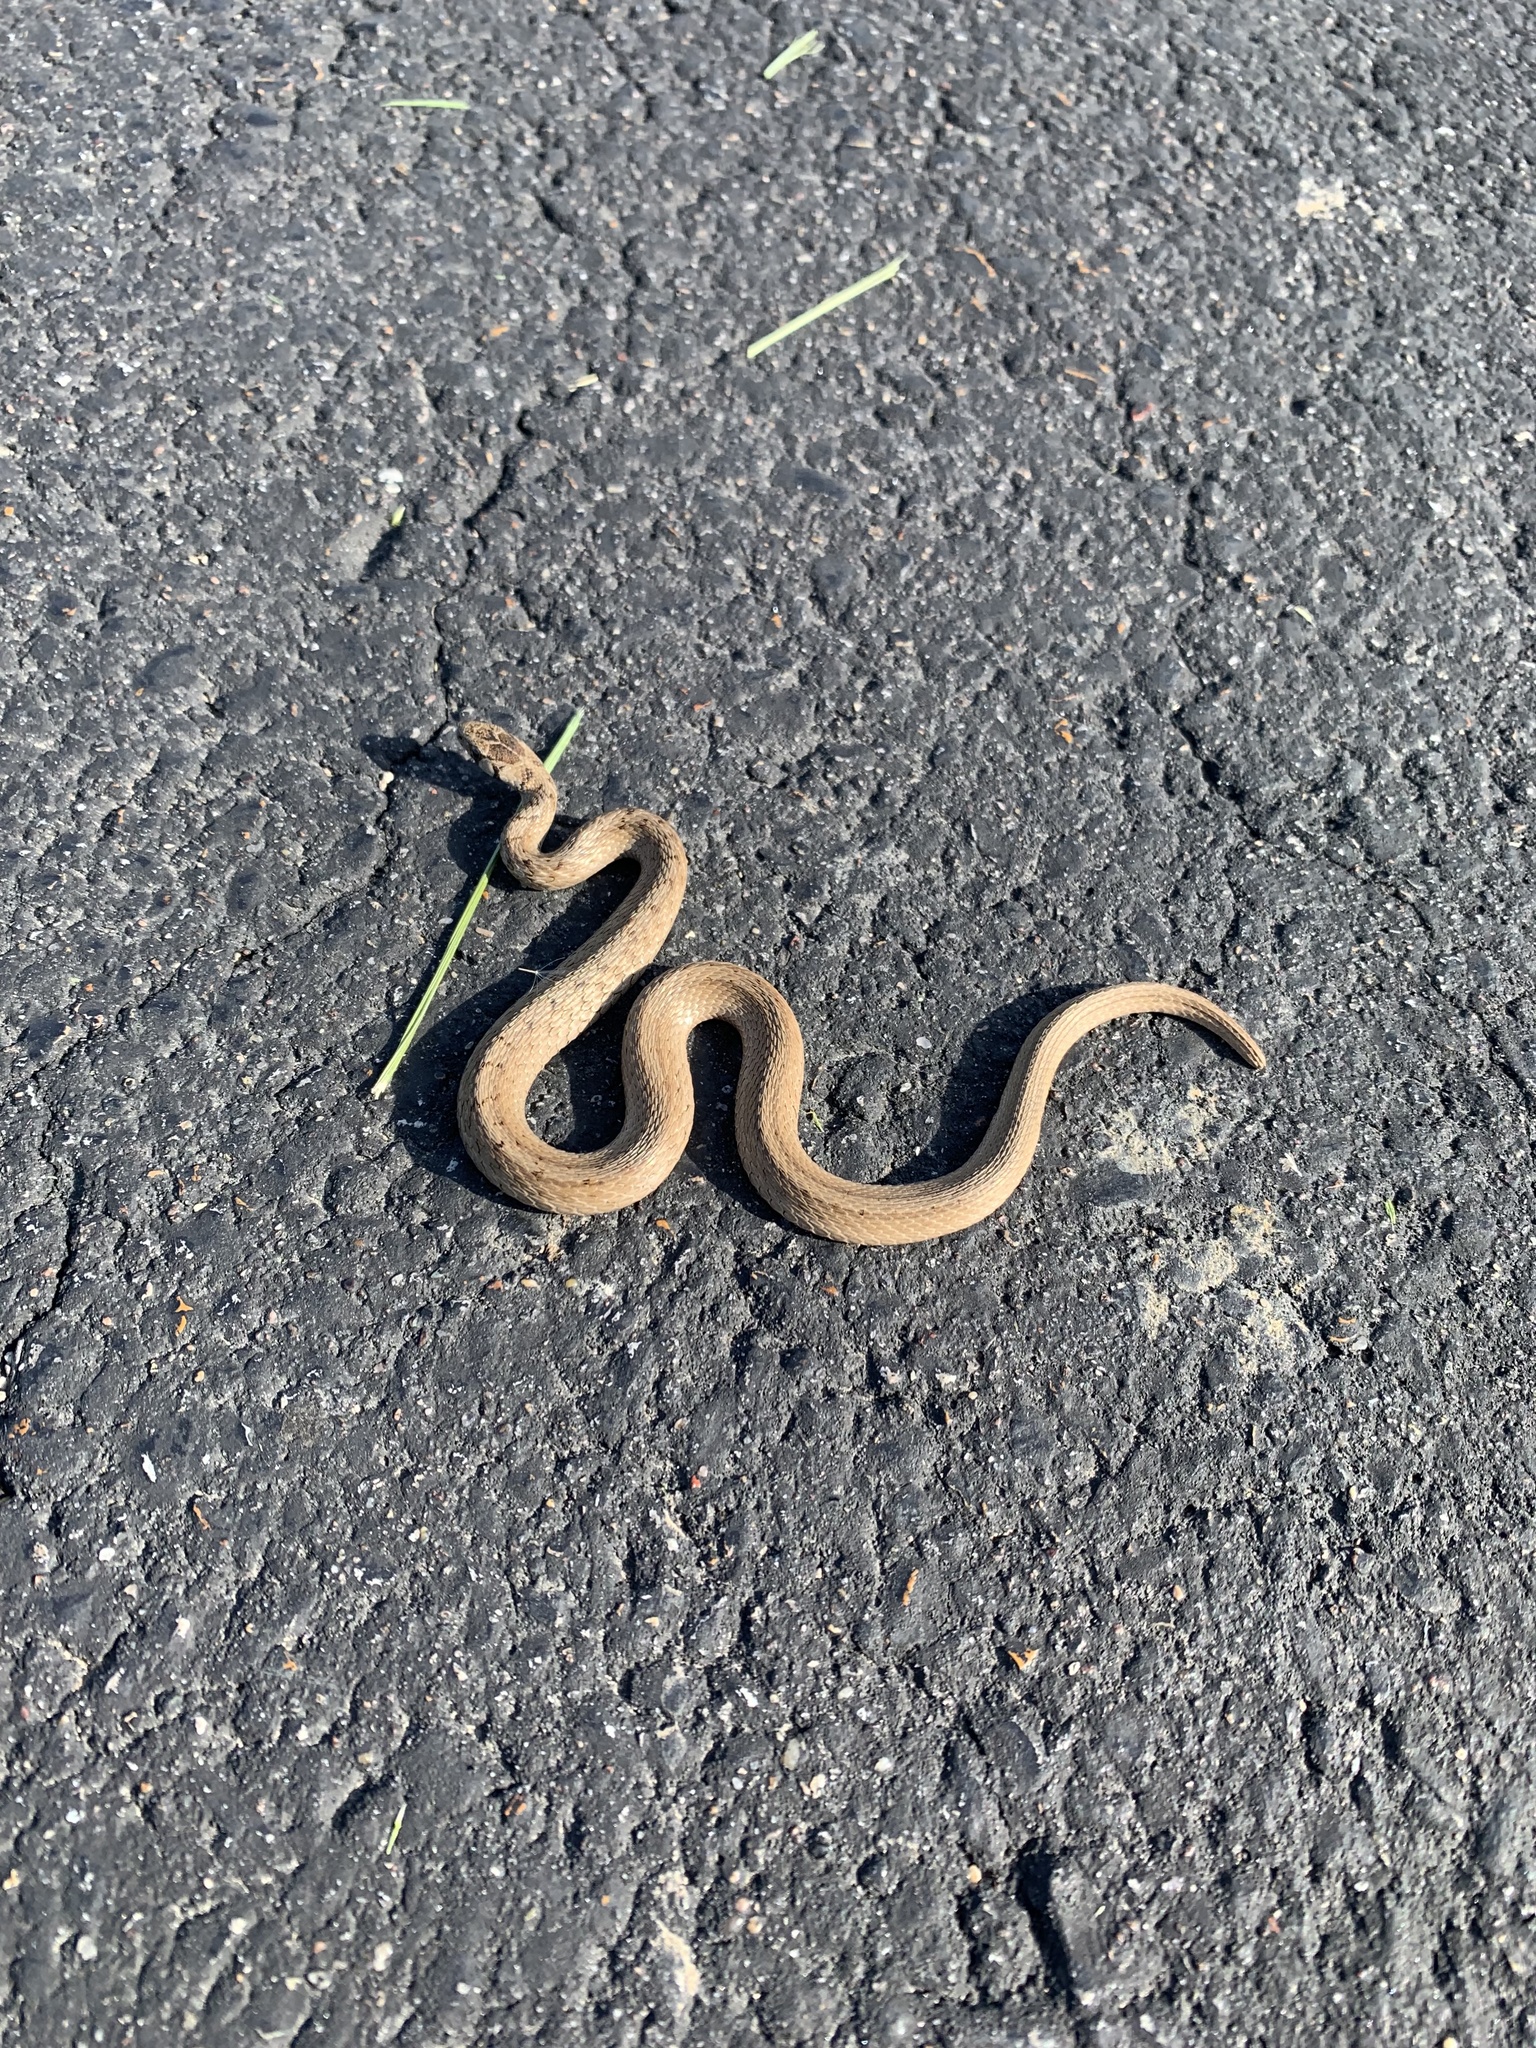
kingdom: Animalia
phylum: Chordata
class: Squamata
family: Colubridae
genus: Storeria
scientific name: Storeria dekayi
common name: (dekay’s) brown snake
